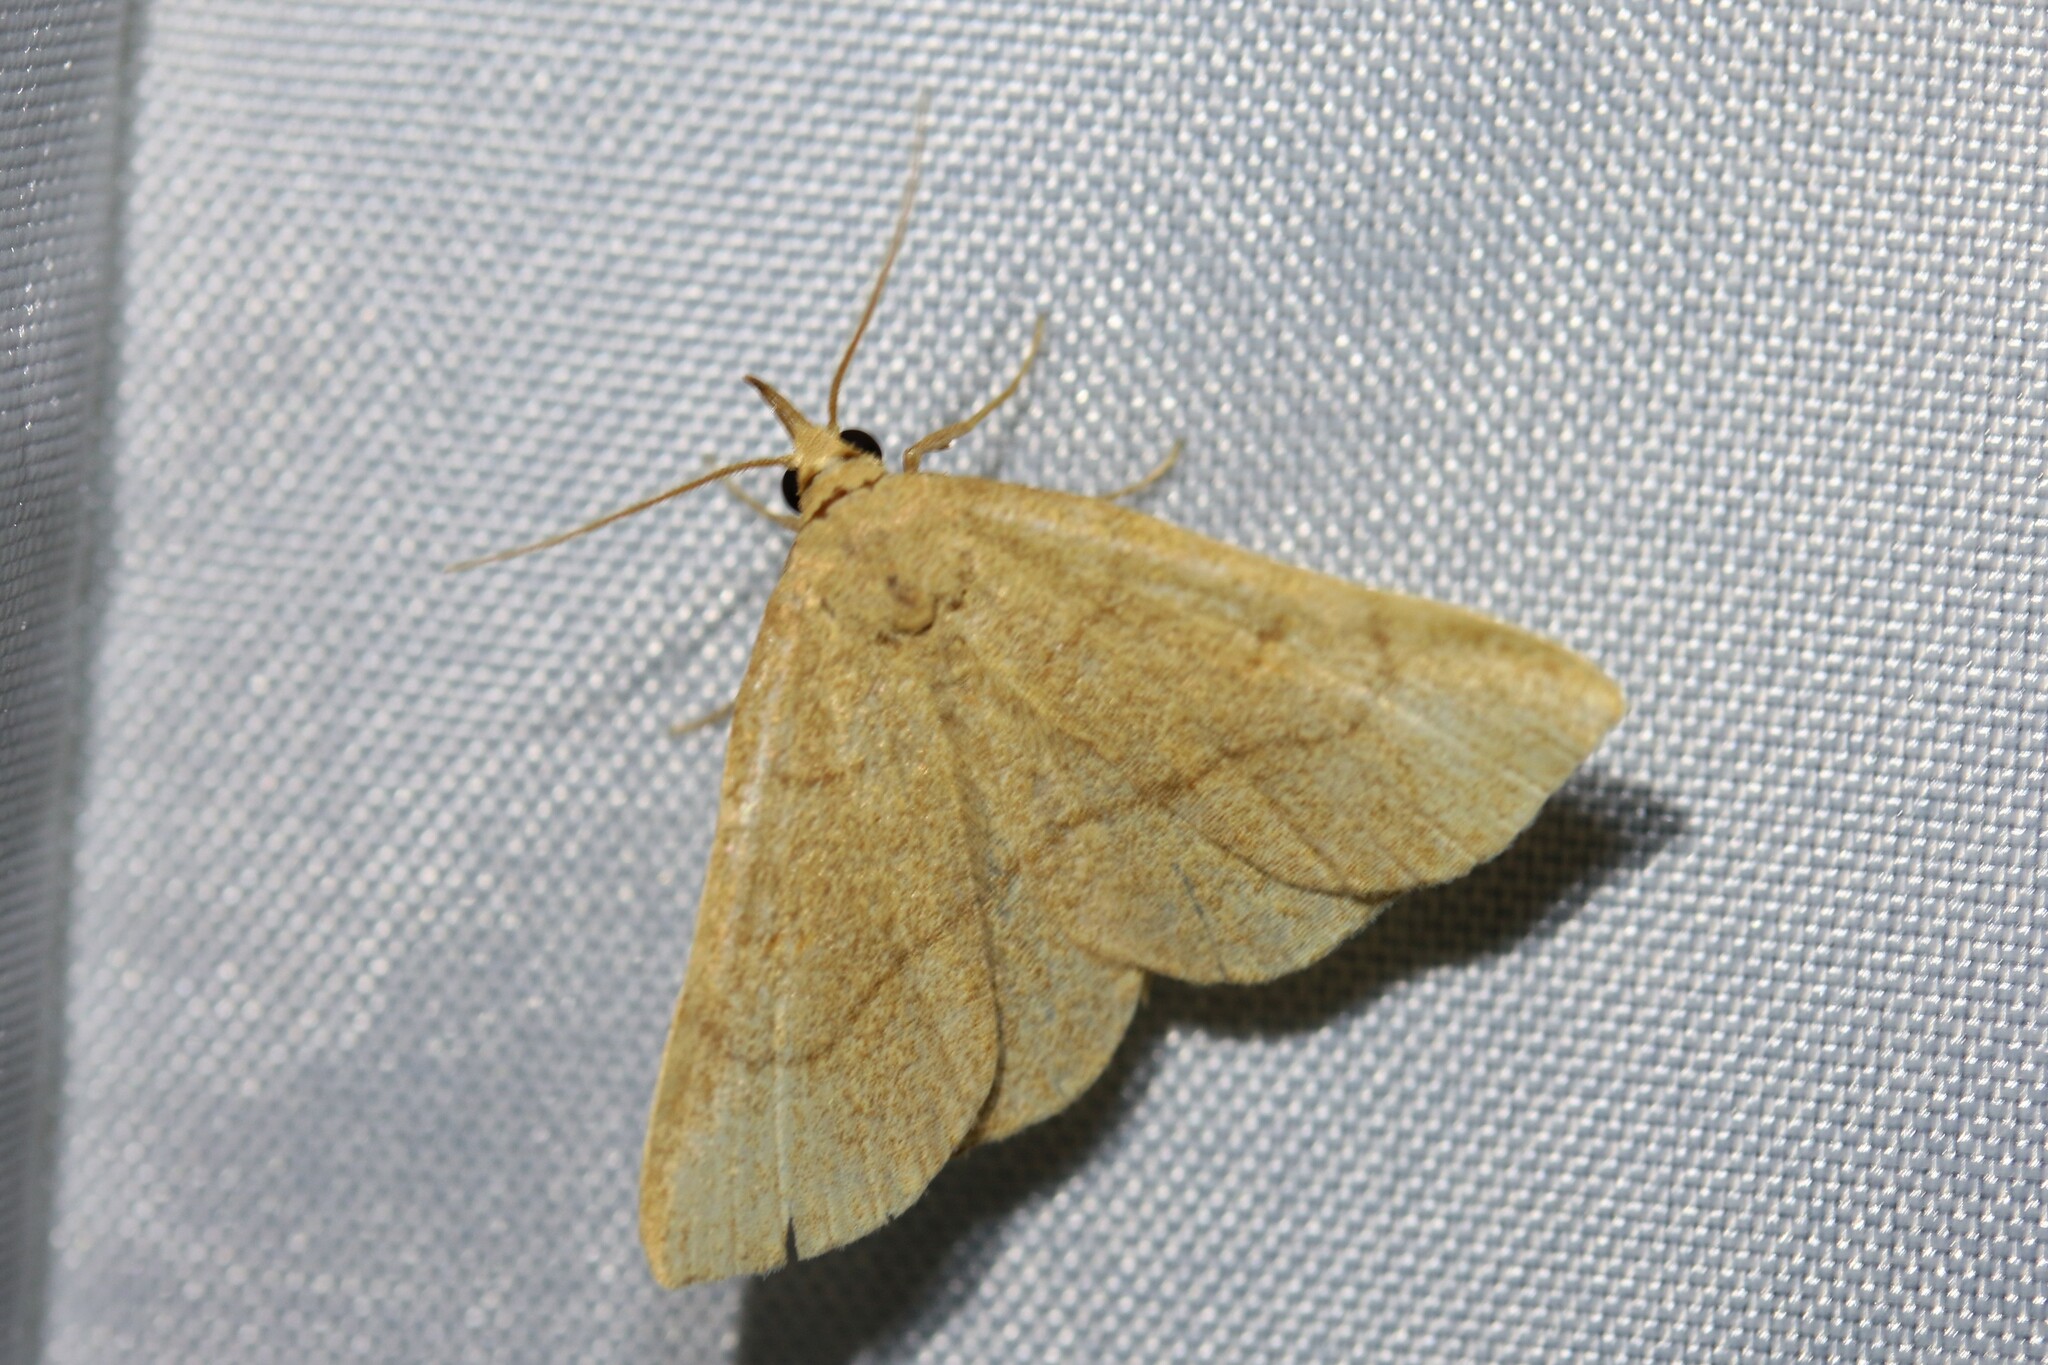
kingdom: Animalia
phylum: Arthropoda
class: Insecta
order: Lepidoptera
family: Erebidae
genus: Paracolax
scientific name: Paracolax tristalis
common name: Clay fan-foot
